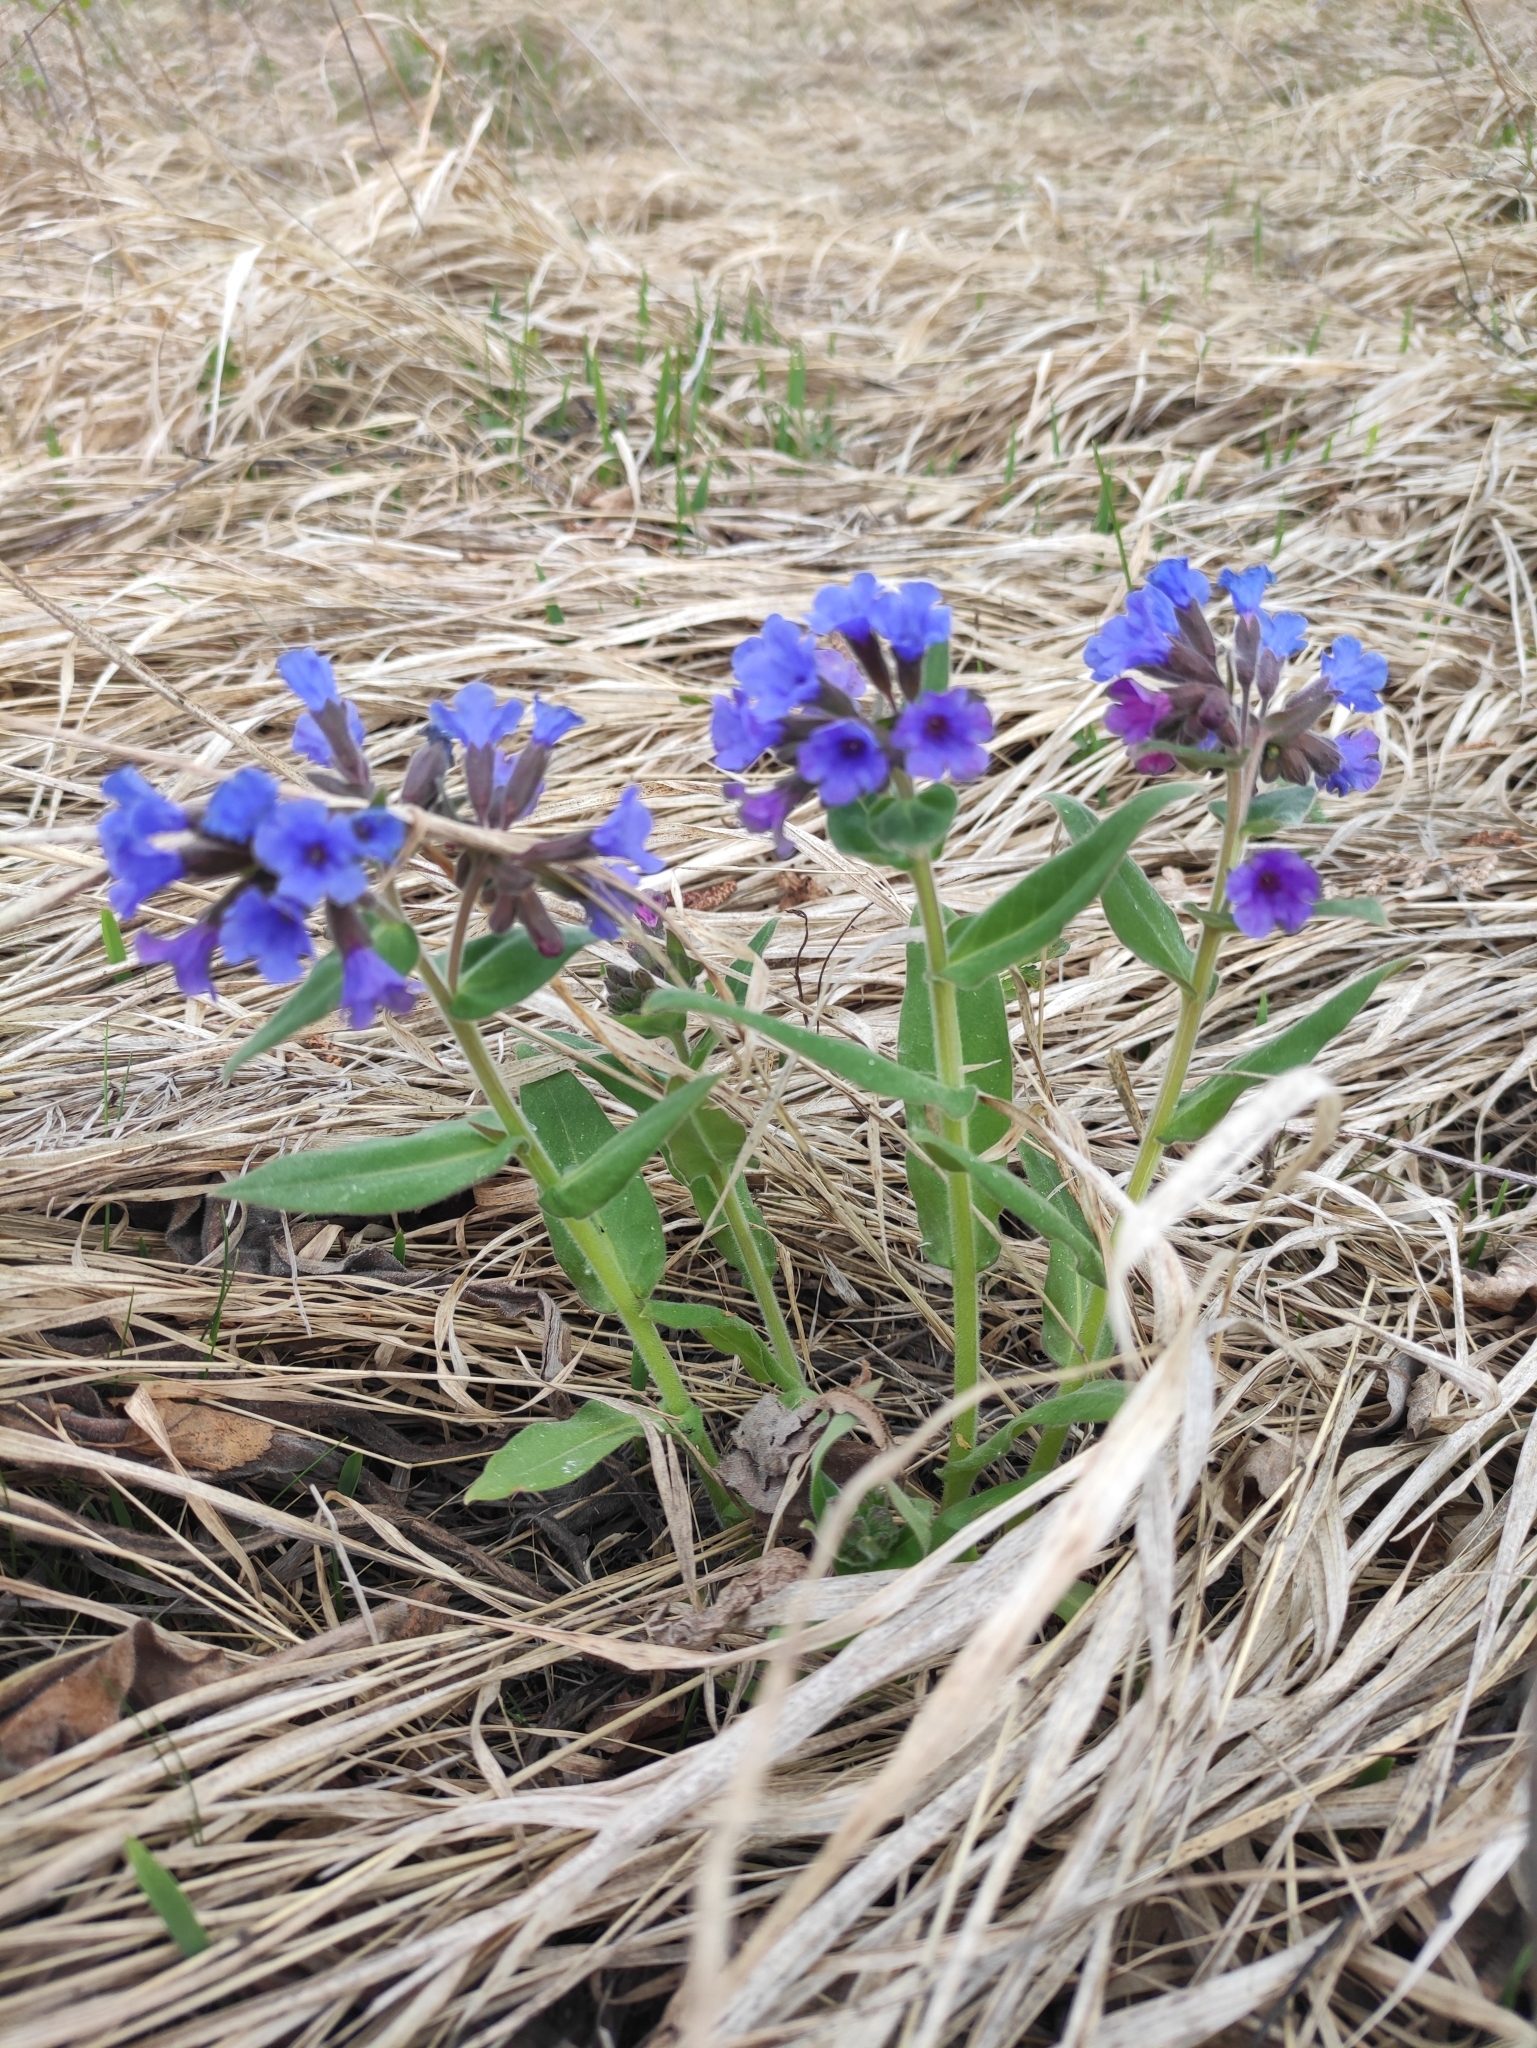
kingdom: Plantae
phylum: Tracheophyta
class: Magnoliopsida
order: Boraginales
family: Boraginaceae
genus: Pulmonaria
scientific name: Pulmonaria mollis
